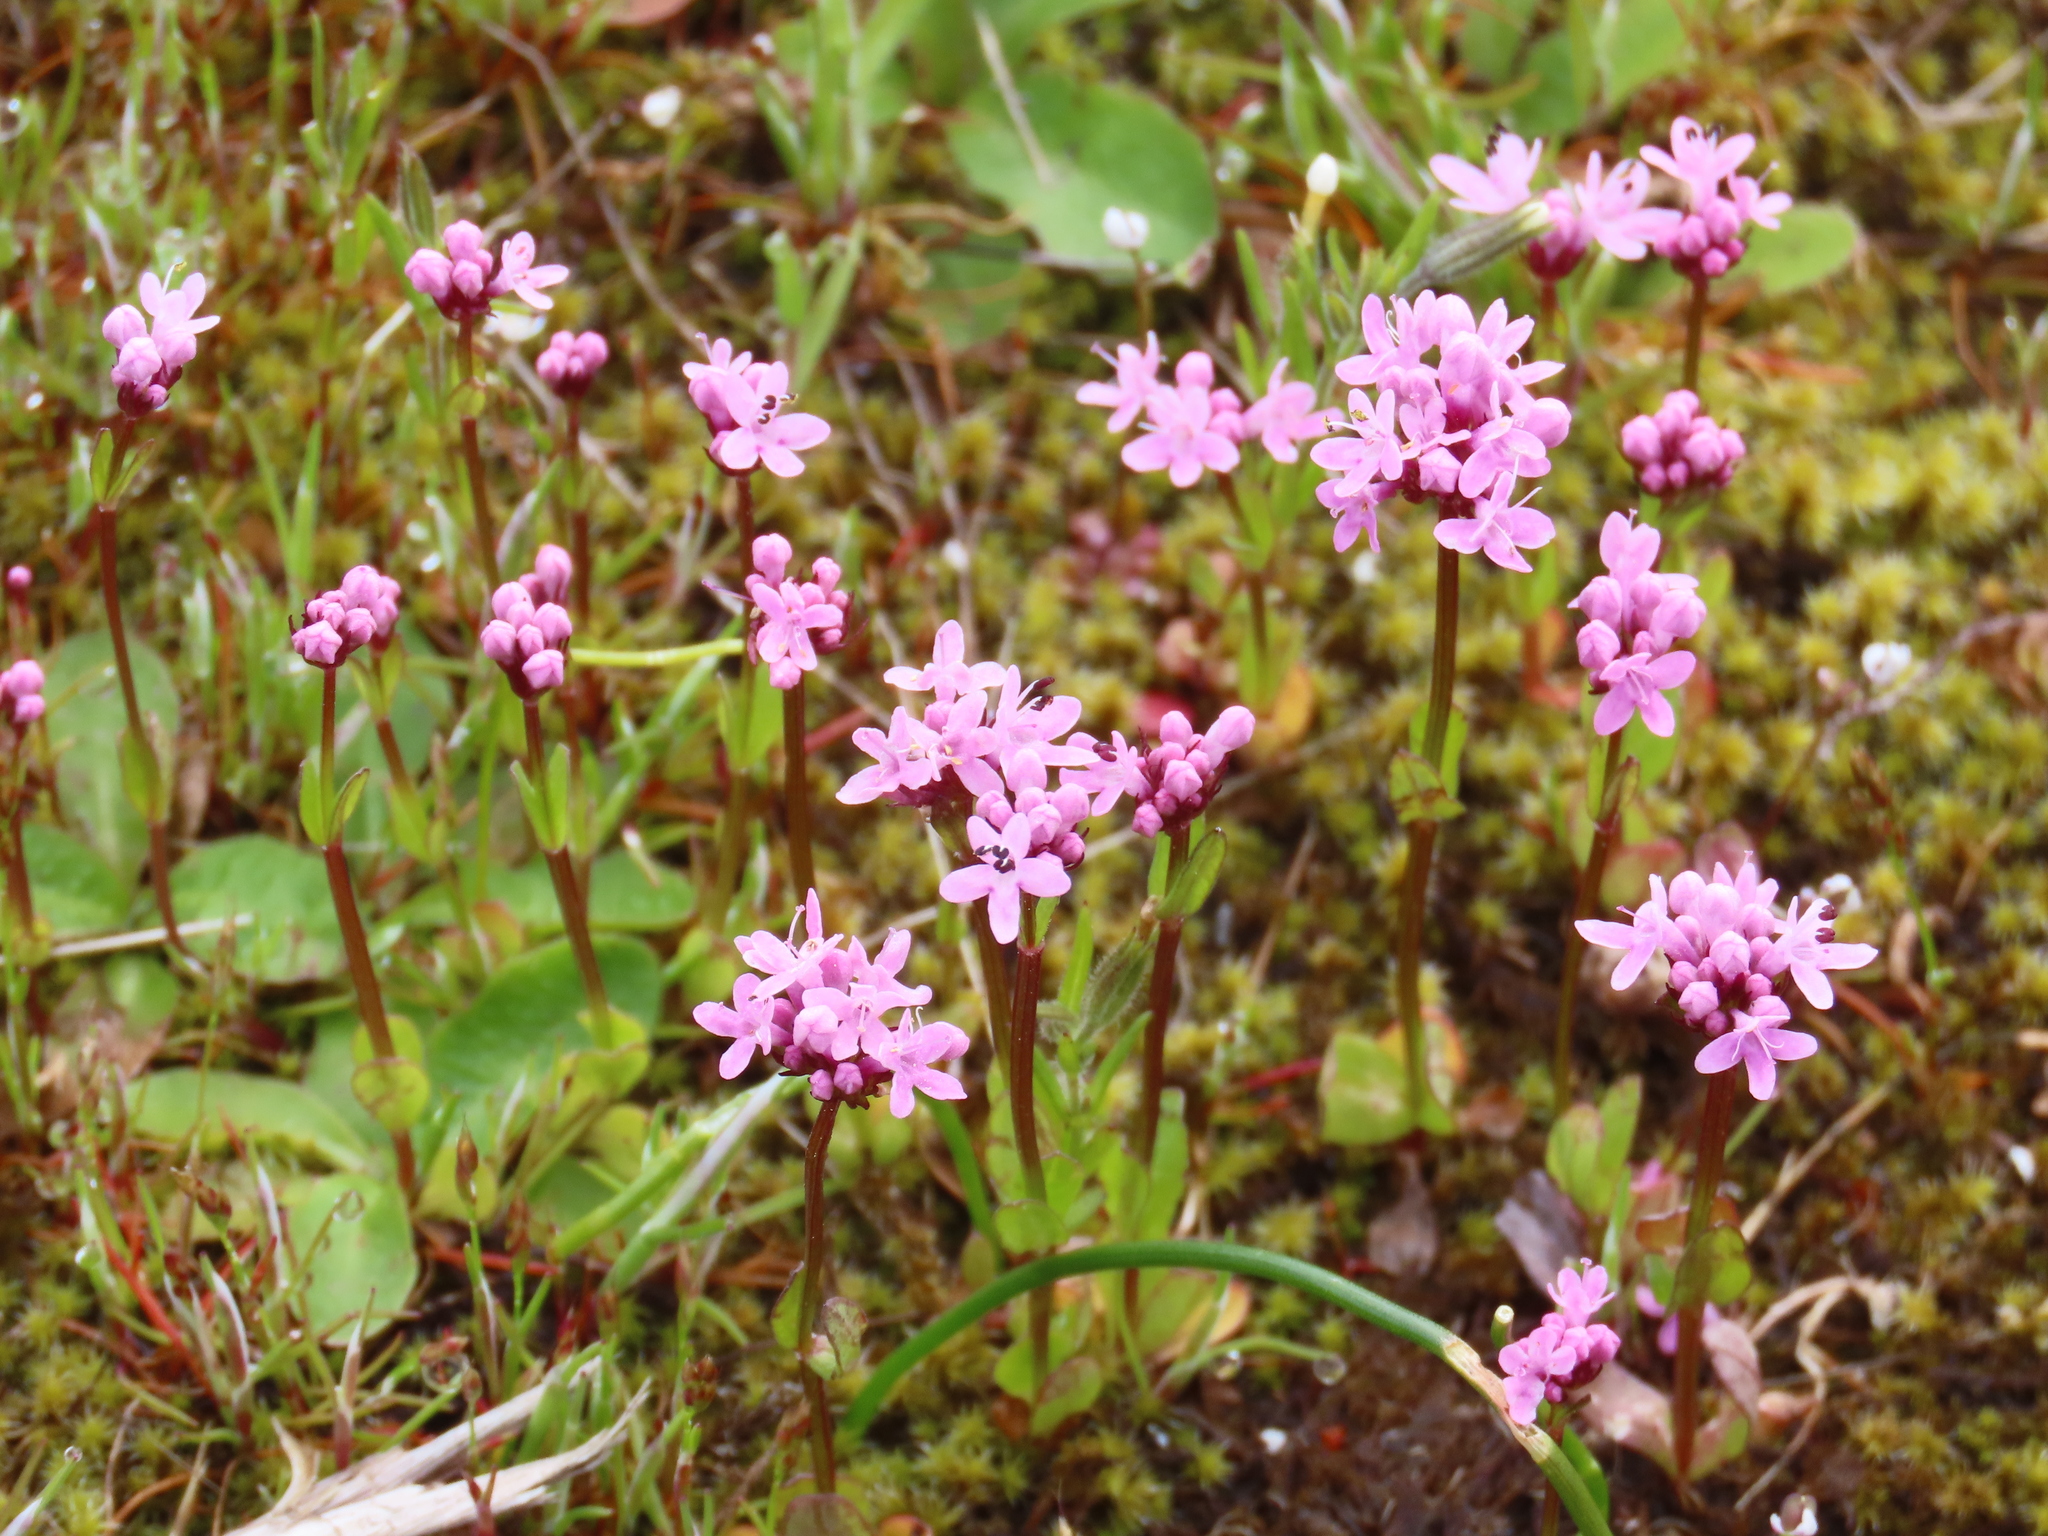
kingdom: Plantae
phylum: Tracheophyta
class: Magnoliopsida
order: Dipsacales
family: Caprifoliaceae
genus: Plectritis
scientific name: Plectritis congesta
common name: Pink plectritis
